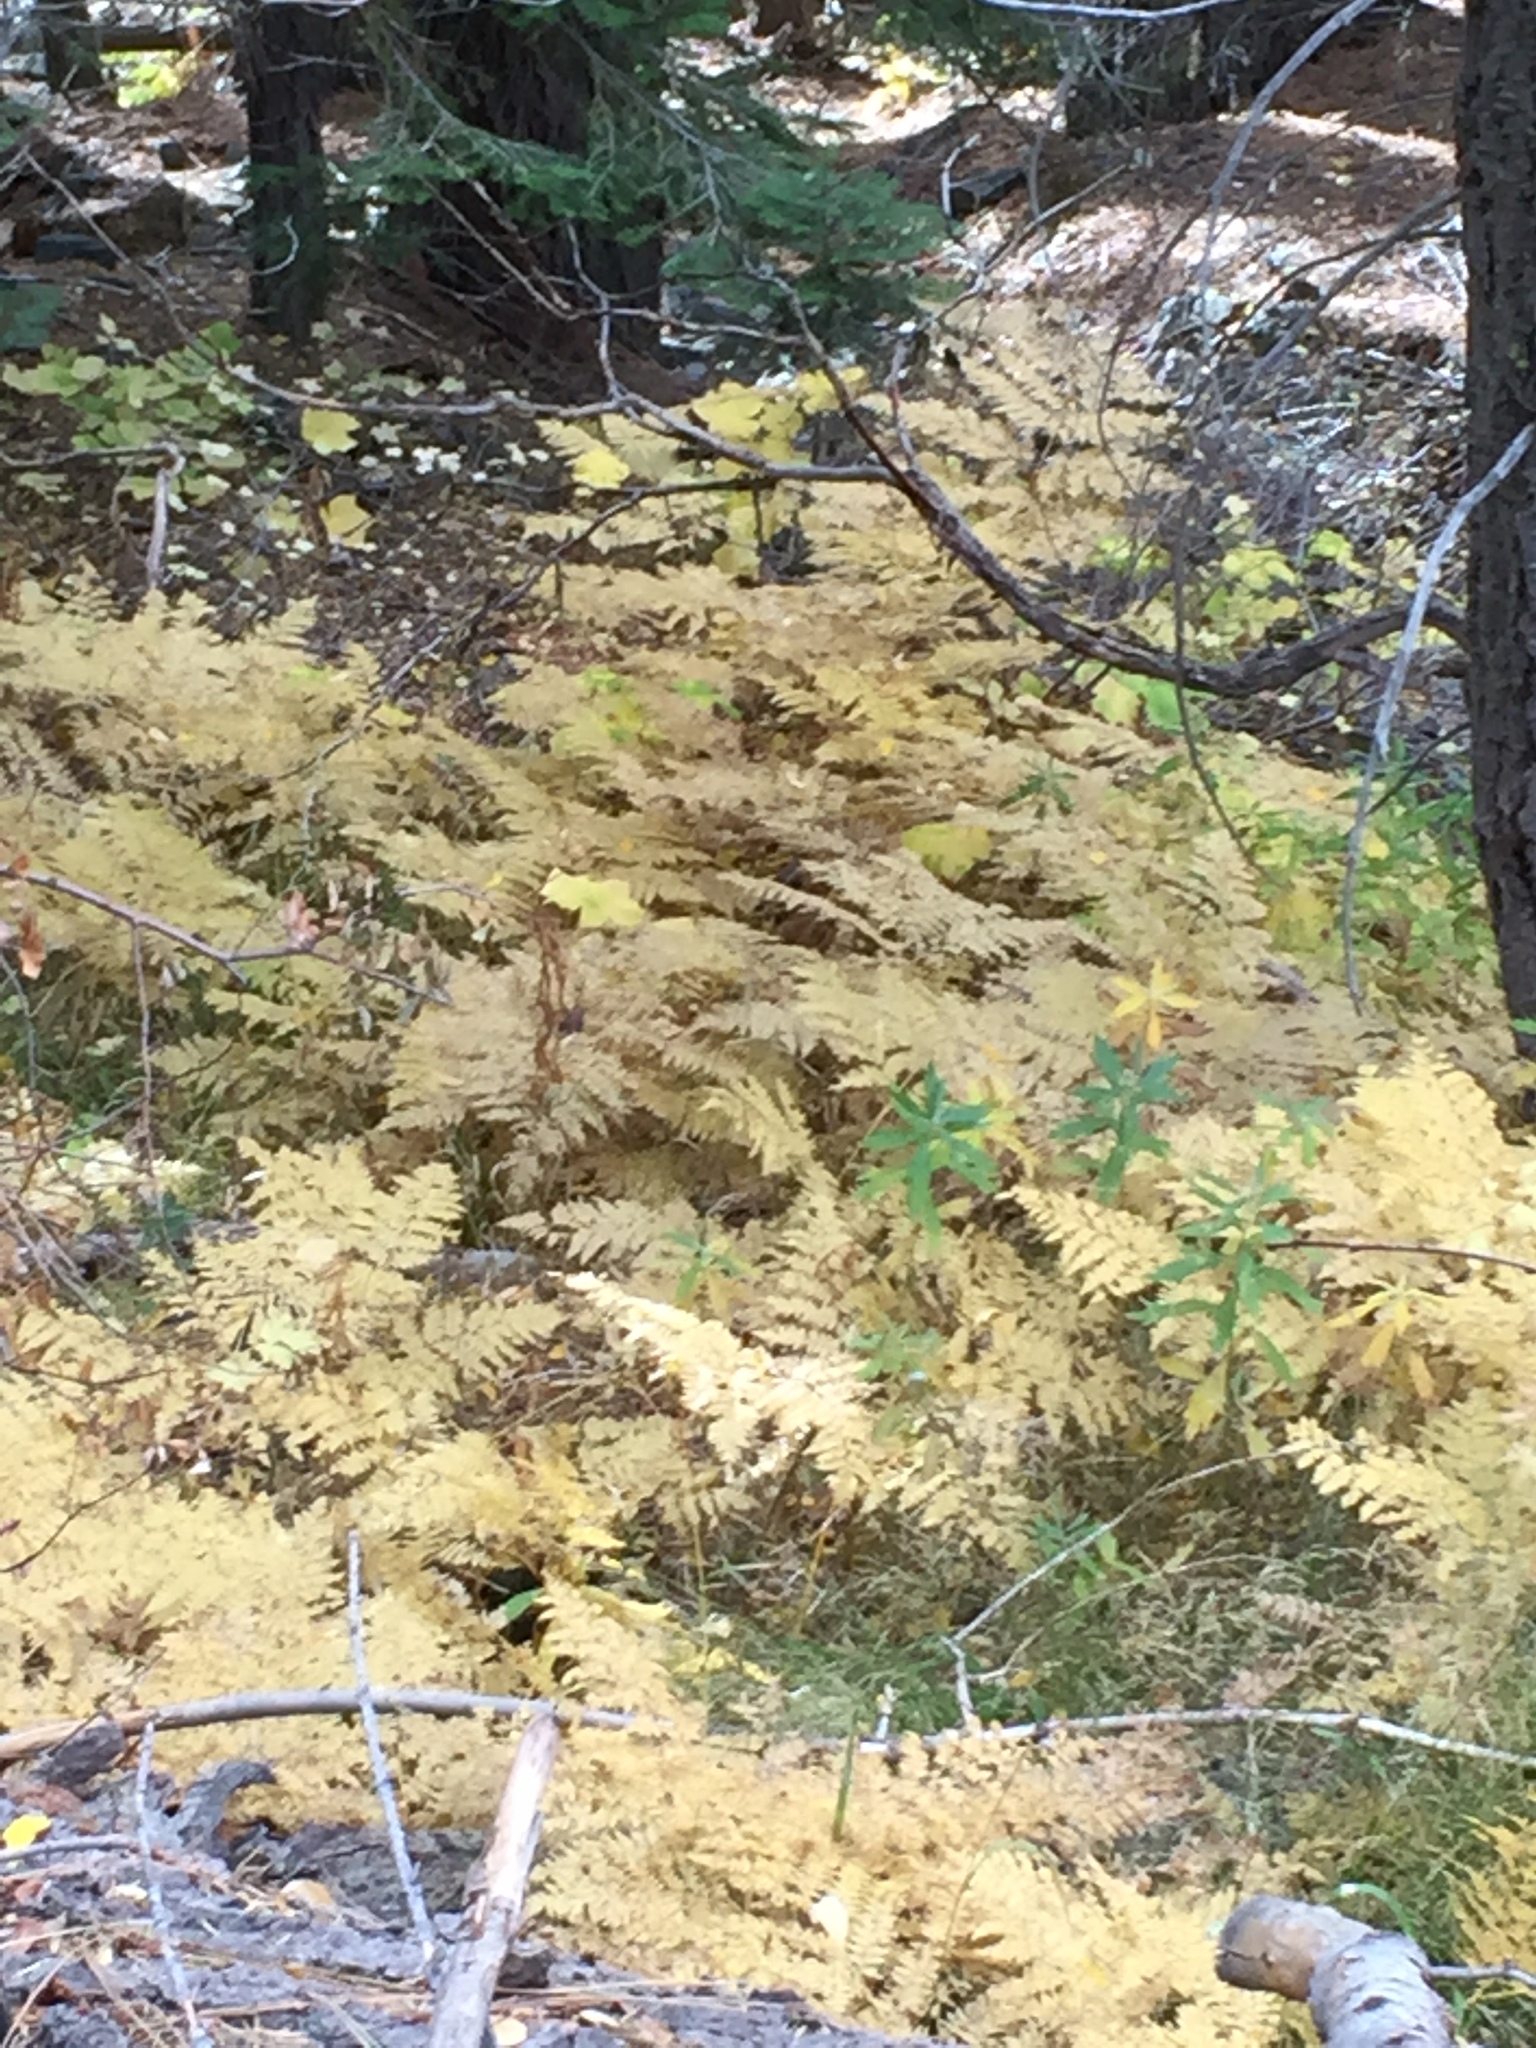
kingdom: Plantae
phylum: Tracheophyta
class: Polypodiopsida
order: Polypodiales
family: Dennstaedtiaceae
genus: Pteridium
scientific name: Pteridium aquilinum
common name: Bracken
